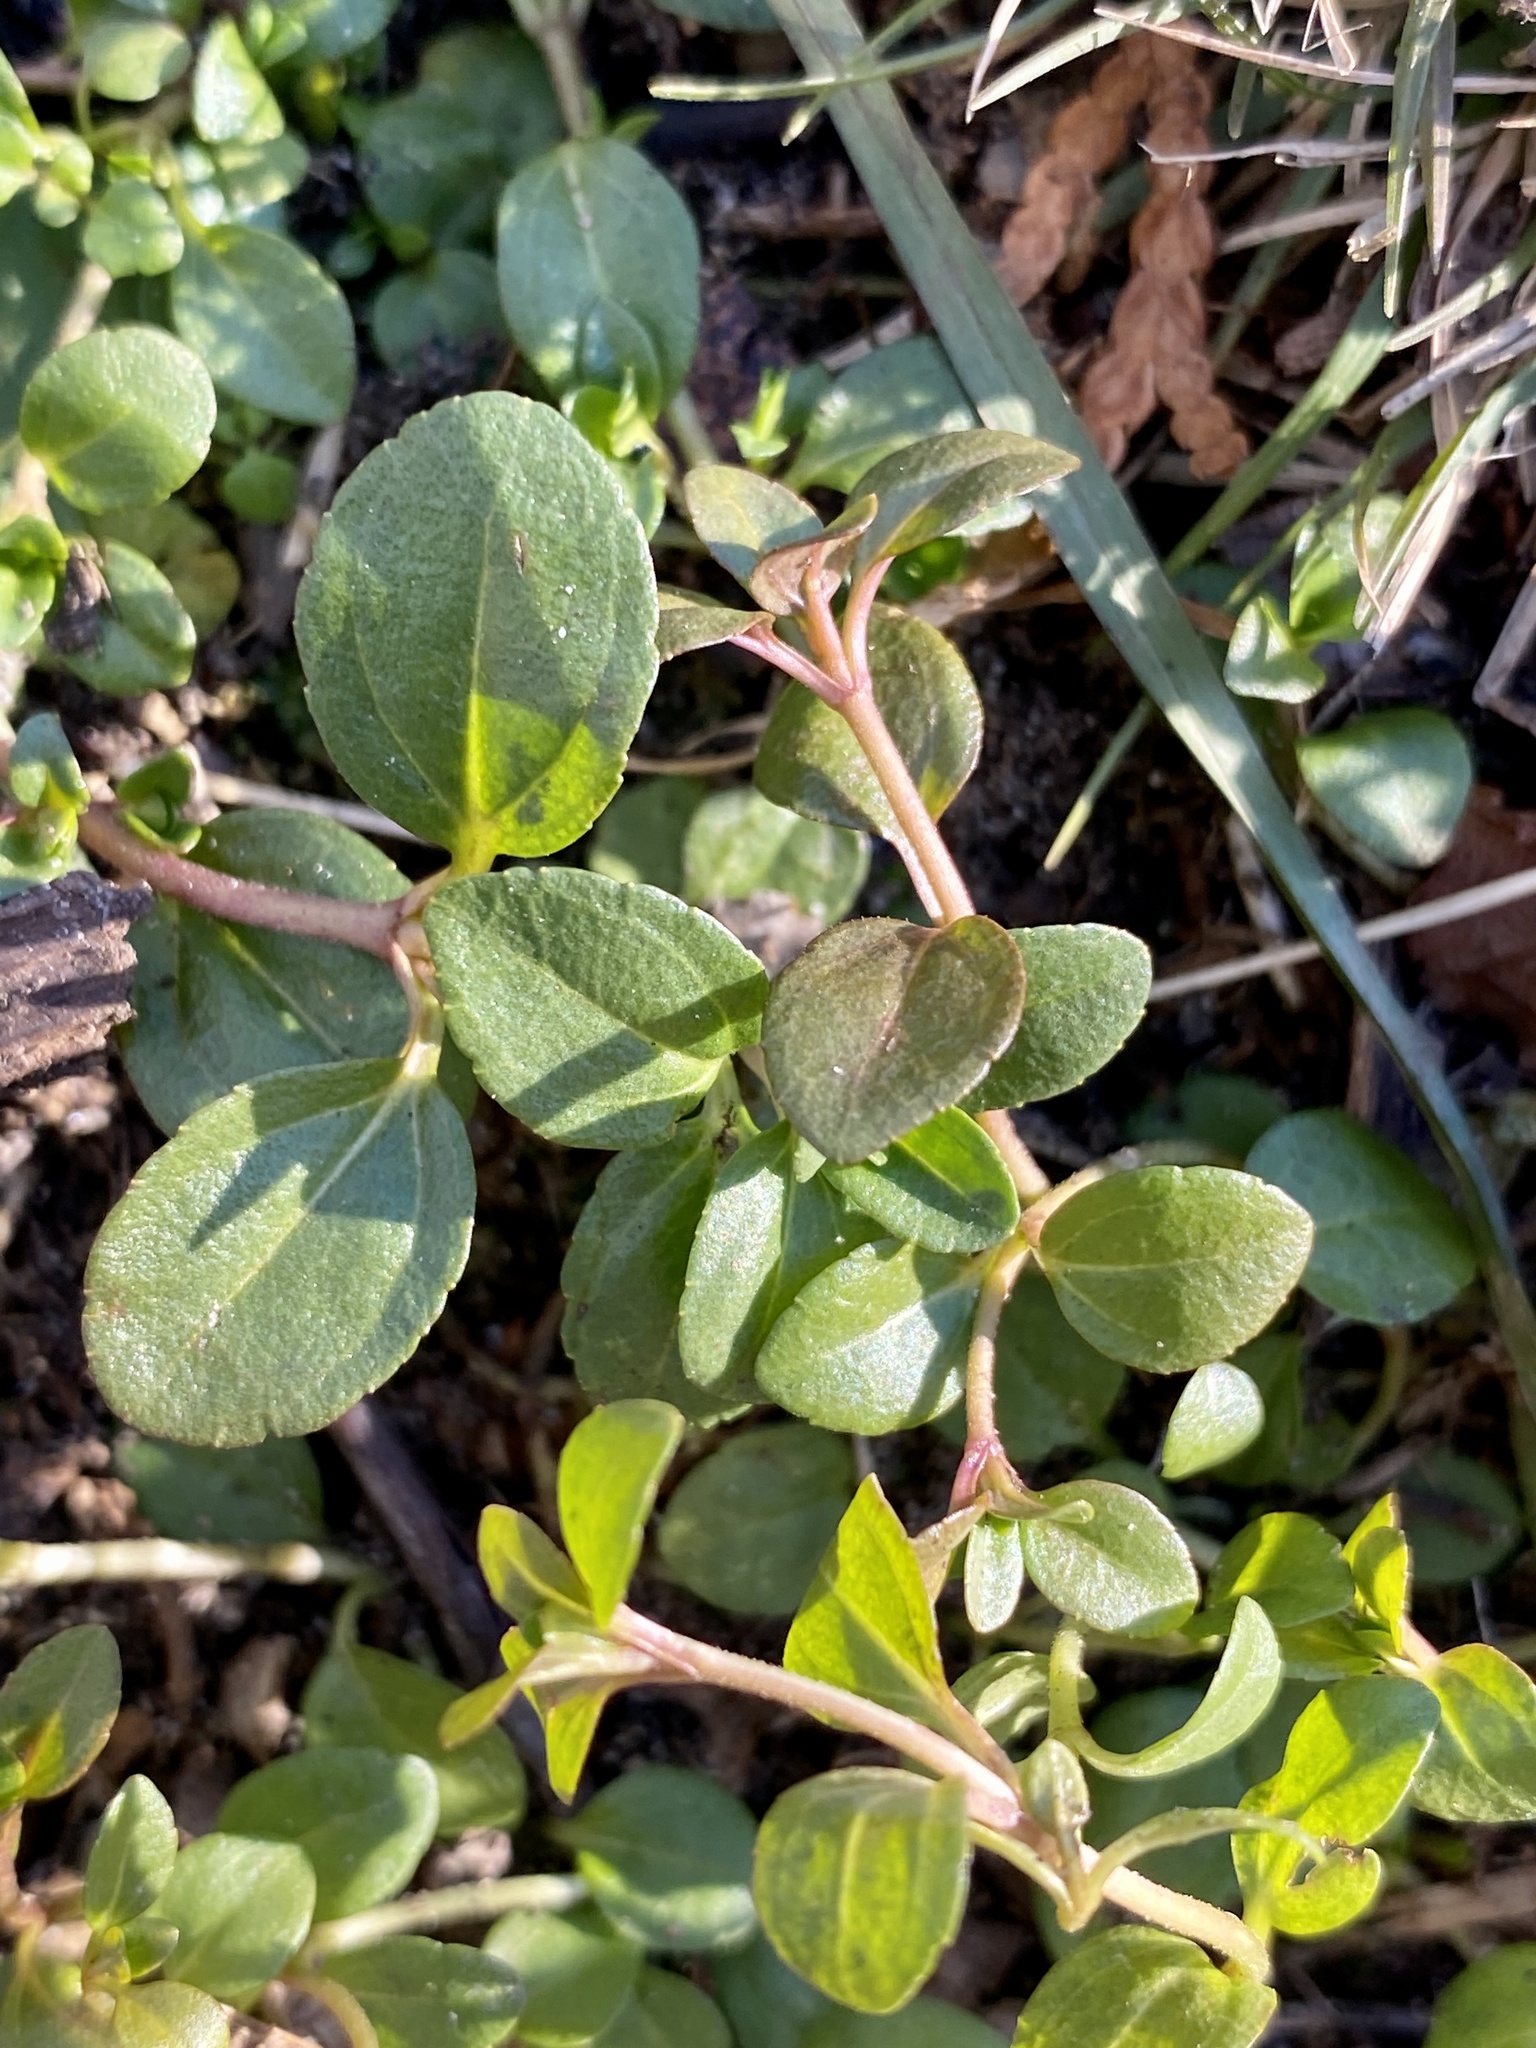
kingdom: Plantae
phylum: Tracheophyta
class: Magnoliopsida
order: Lamiales
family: Plantaginaceae
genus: Veronica
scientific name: Veronica serpyllifolia
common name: Thyme-leaved speedwell
